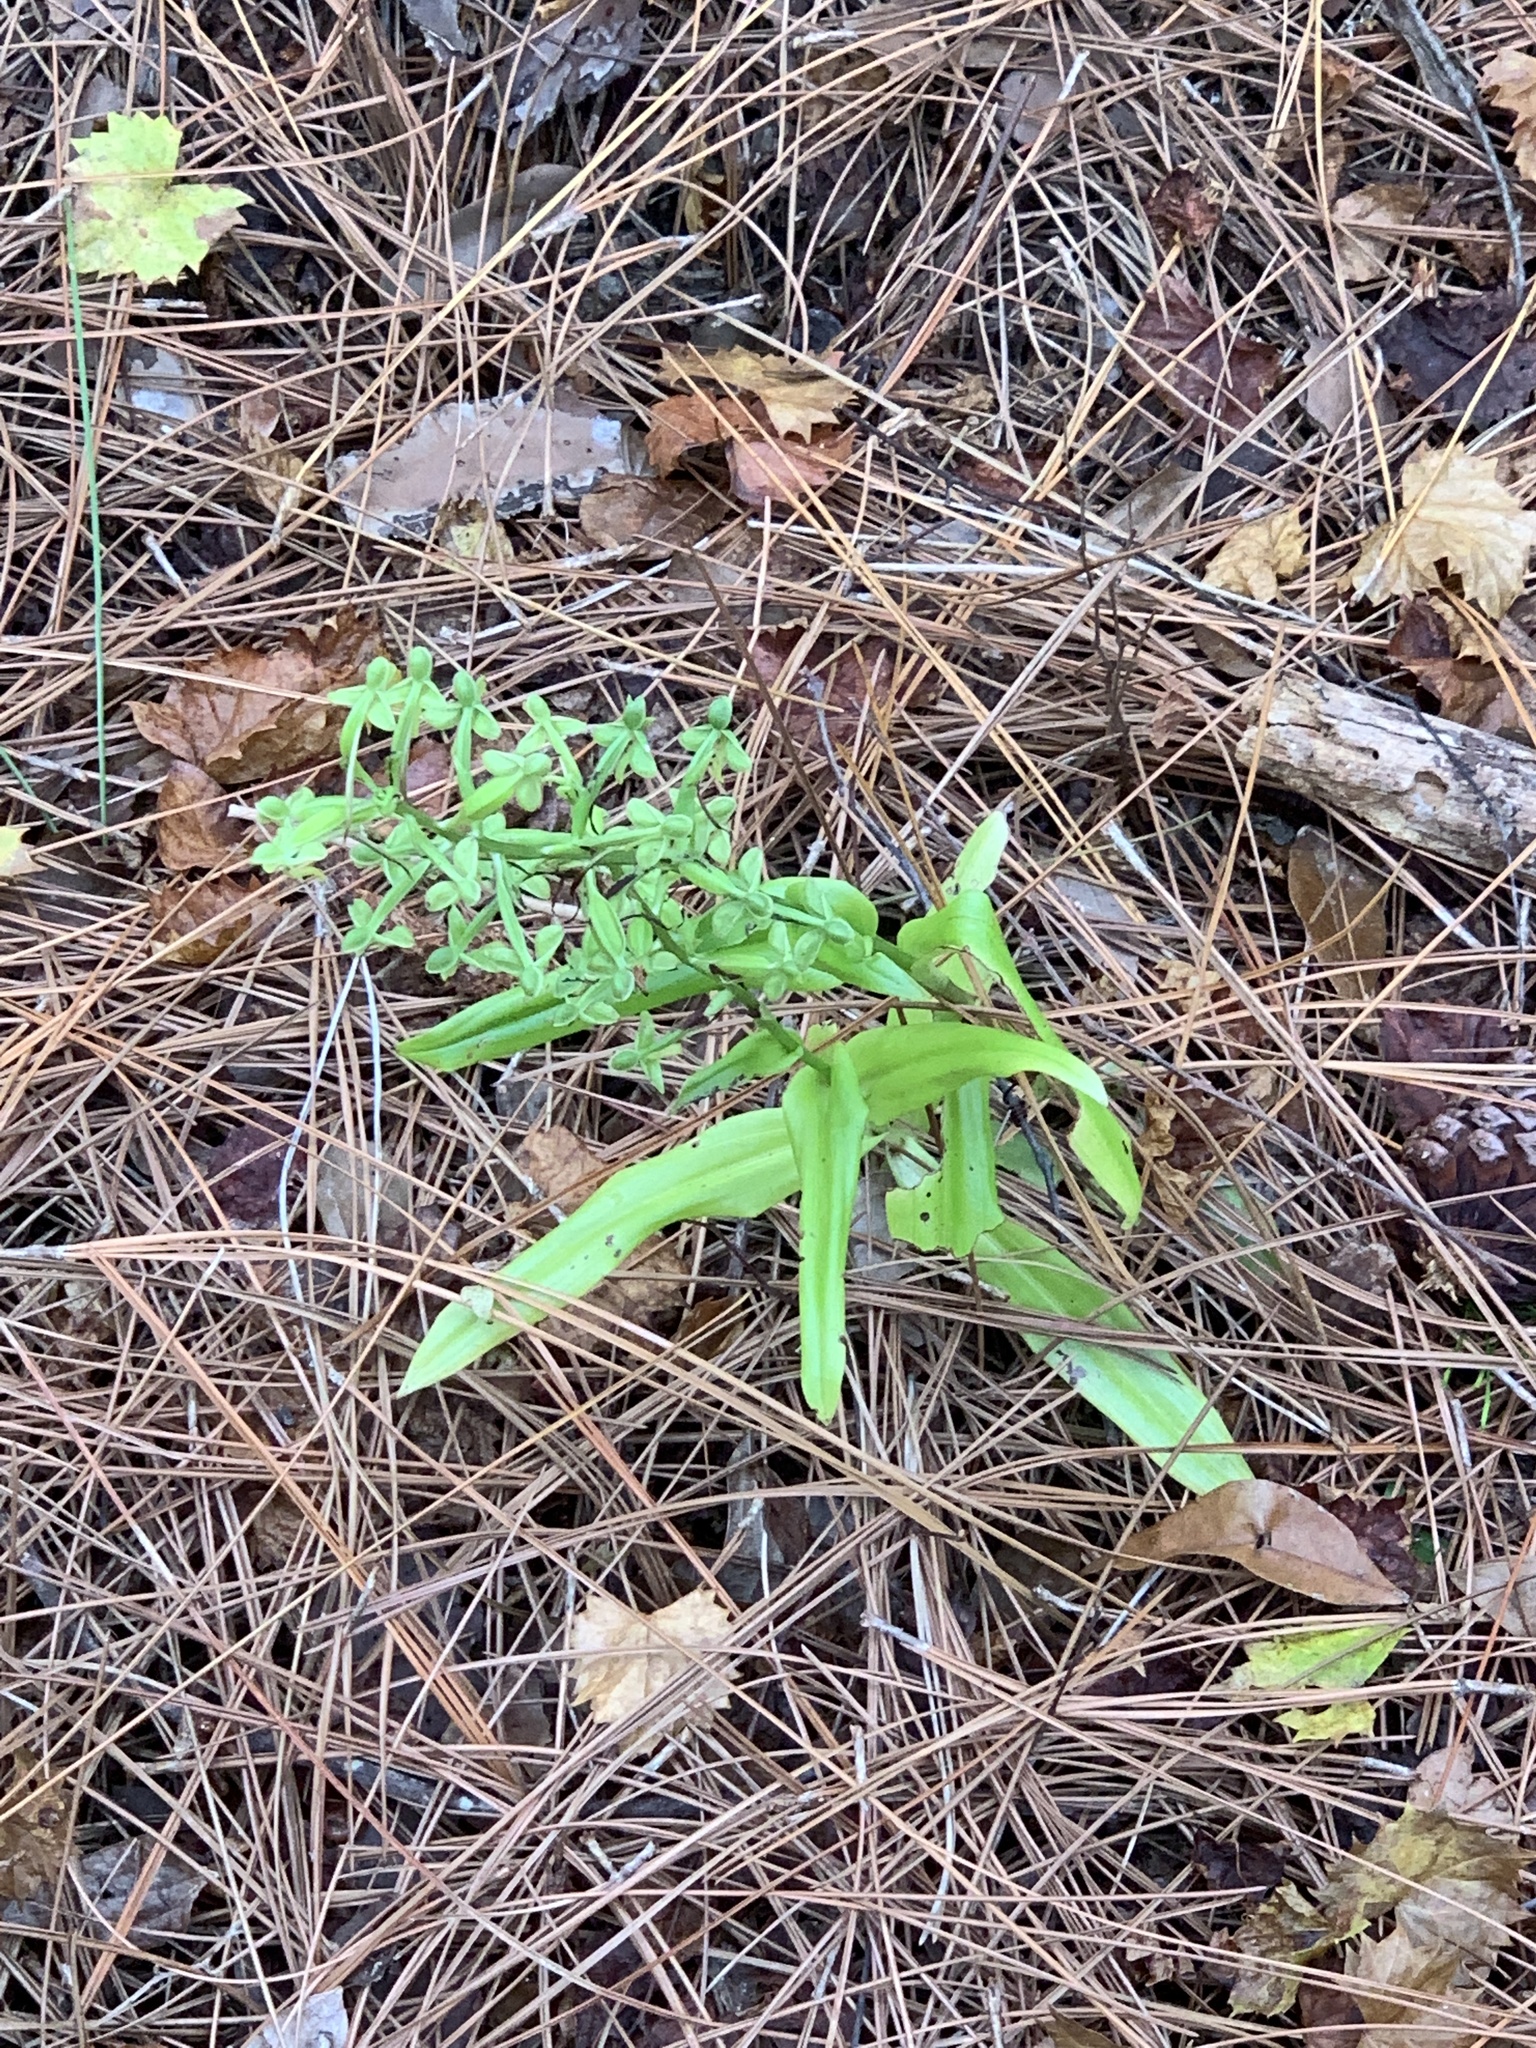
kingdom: Plantae
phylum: Tracheophyta
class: Liliopsida
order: Asparagales
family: Orchidaceae
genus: Habenaria
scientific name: Habenaria floribunda
